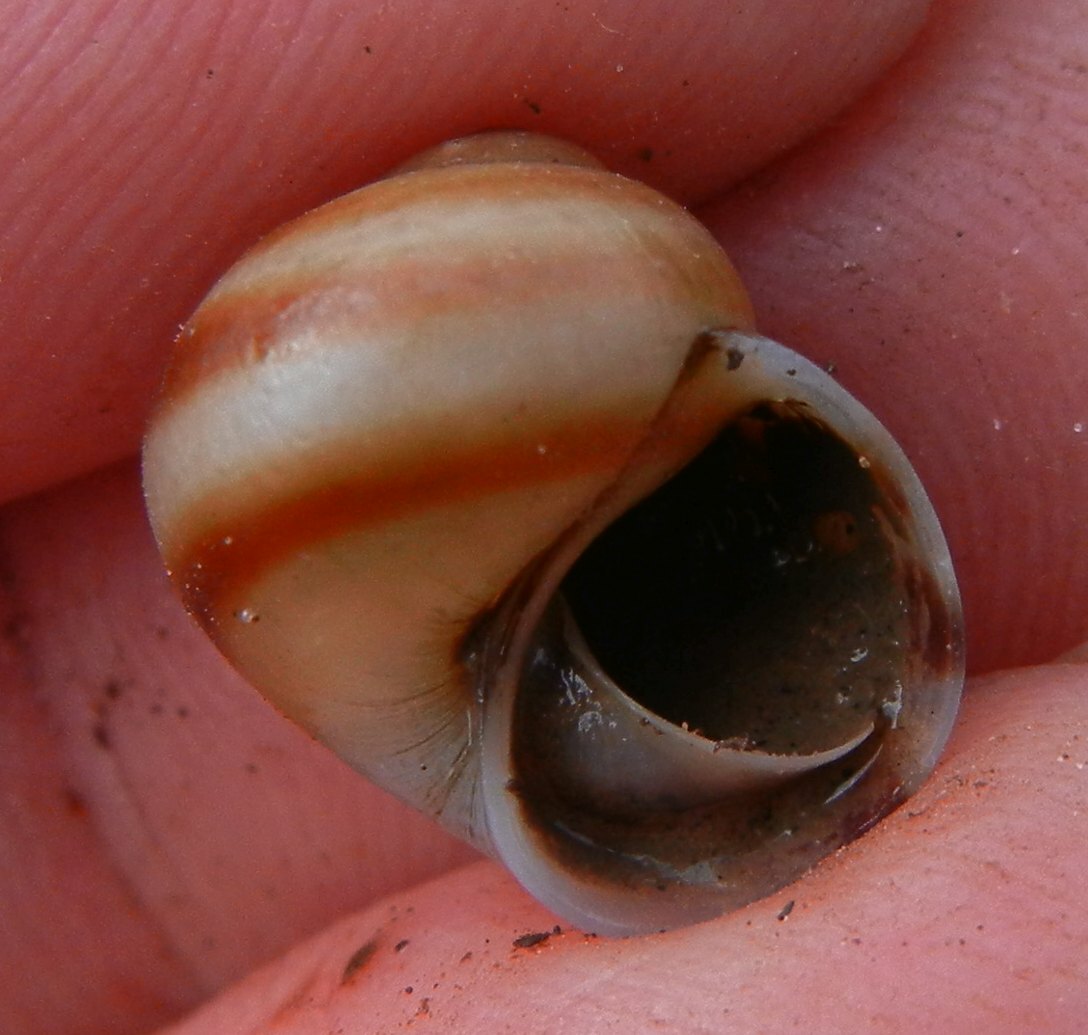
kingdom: Animalia
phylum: Mollusca
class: Gastropoda
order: Architaenioglossa
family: Viviparidae
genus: Viviparus
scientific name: Viviparus viviparus
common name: River snail
